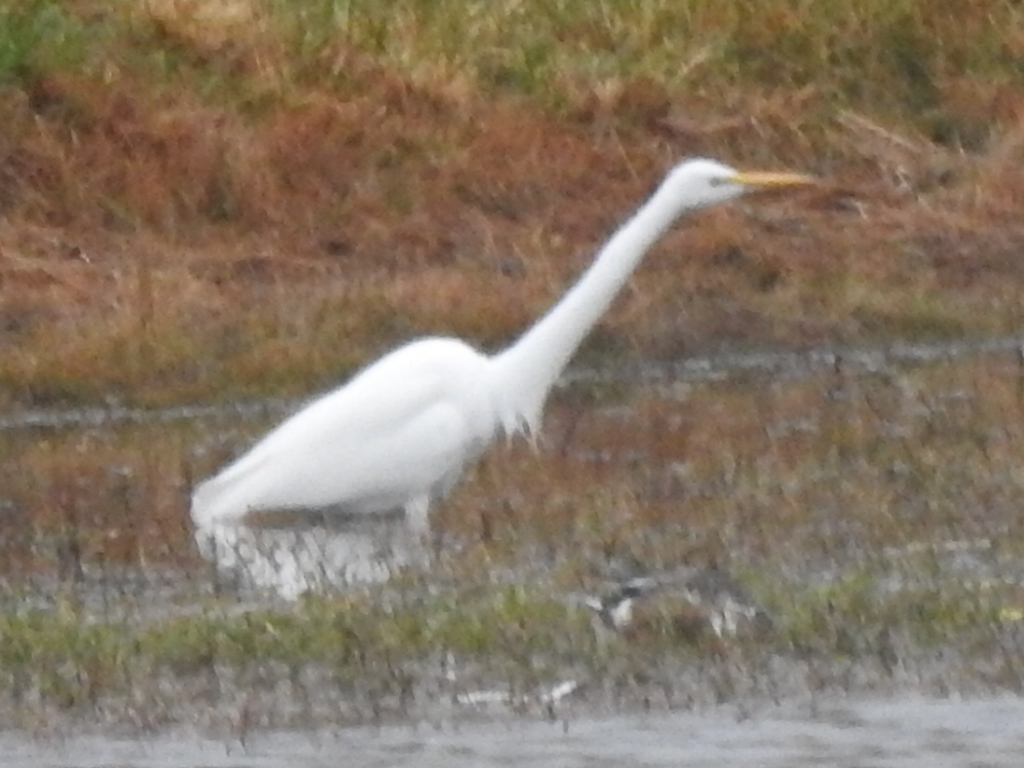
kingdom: Animalia
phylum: Chordata
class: Aves
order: Pelecaniformes
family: Ardeidae
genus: Ardea
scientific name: Ardea alba
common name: Great egret
